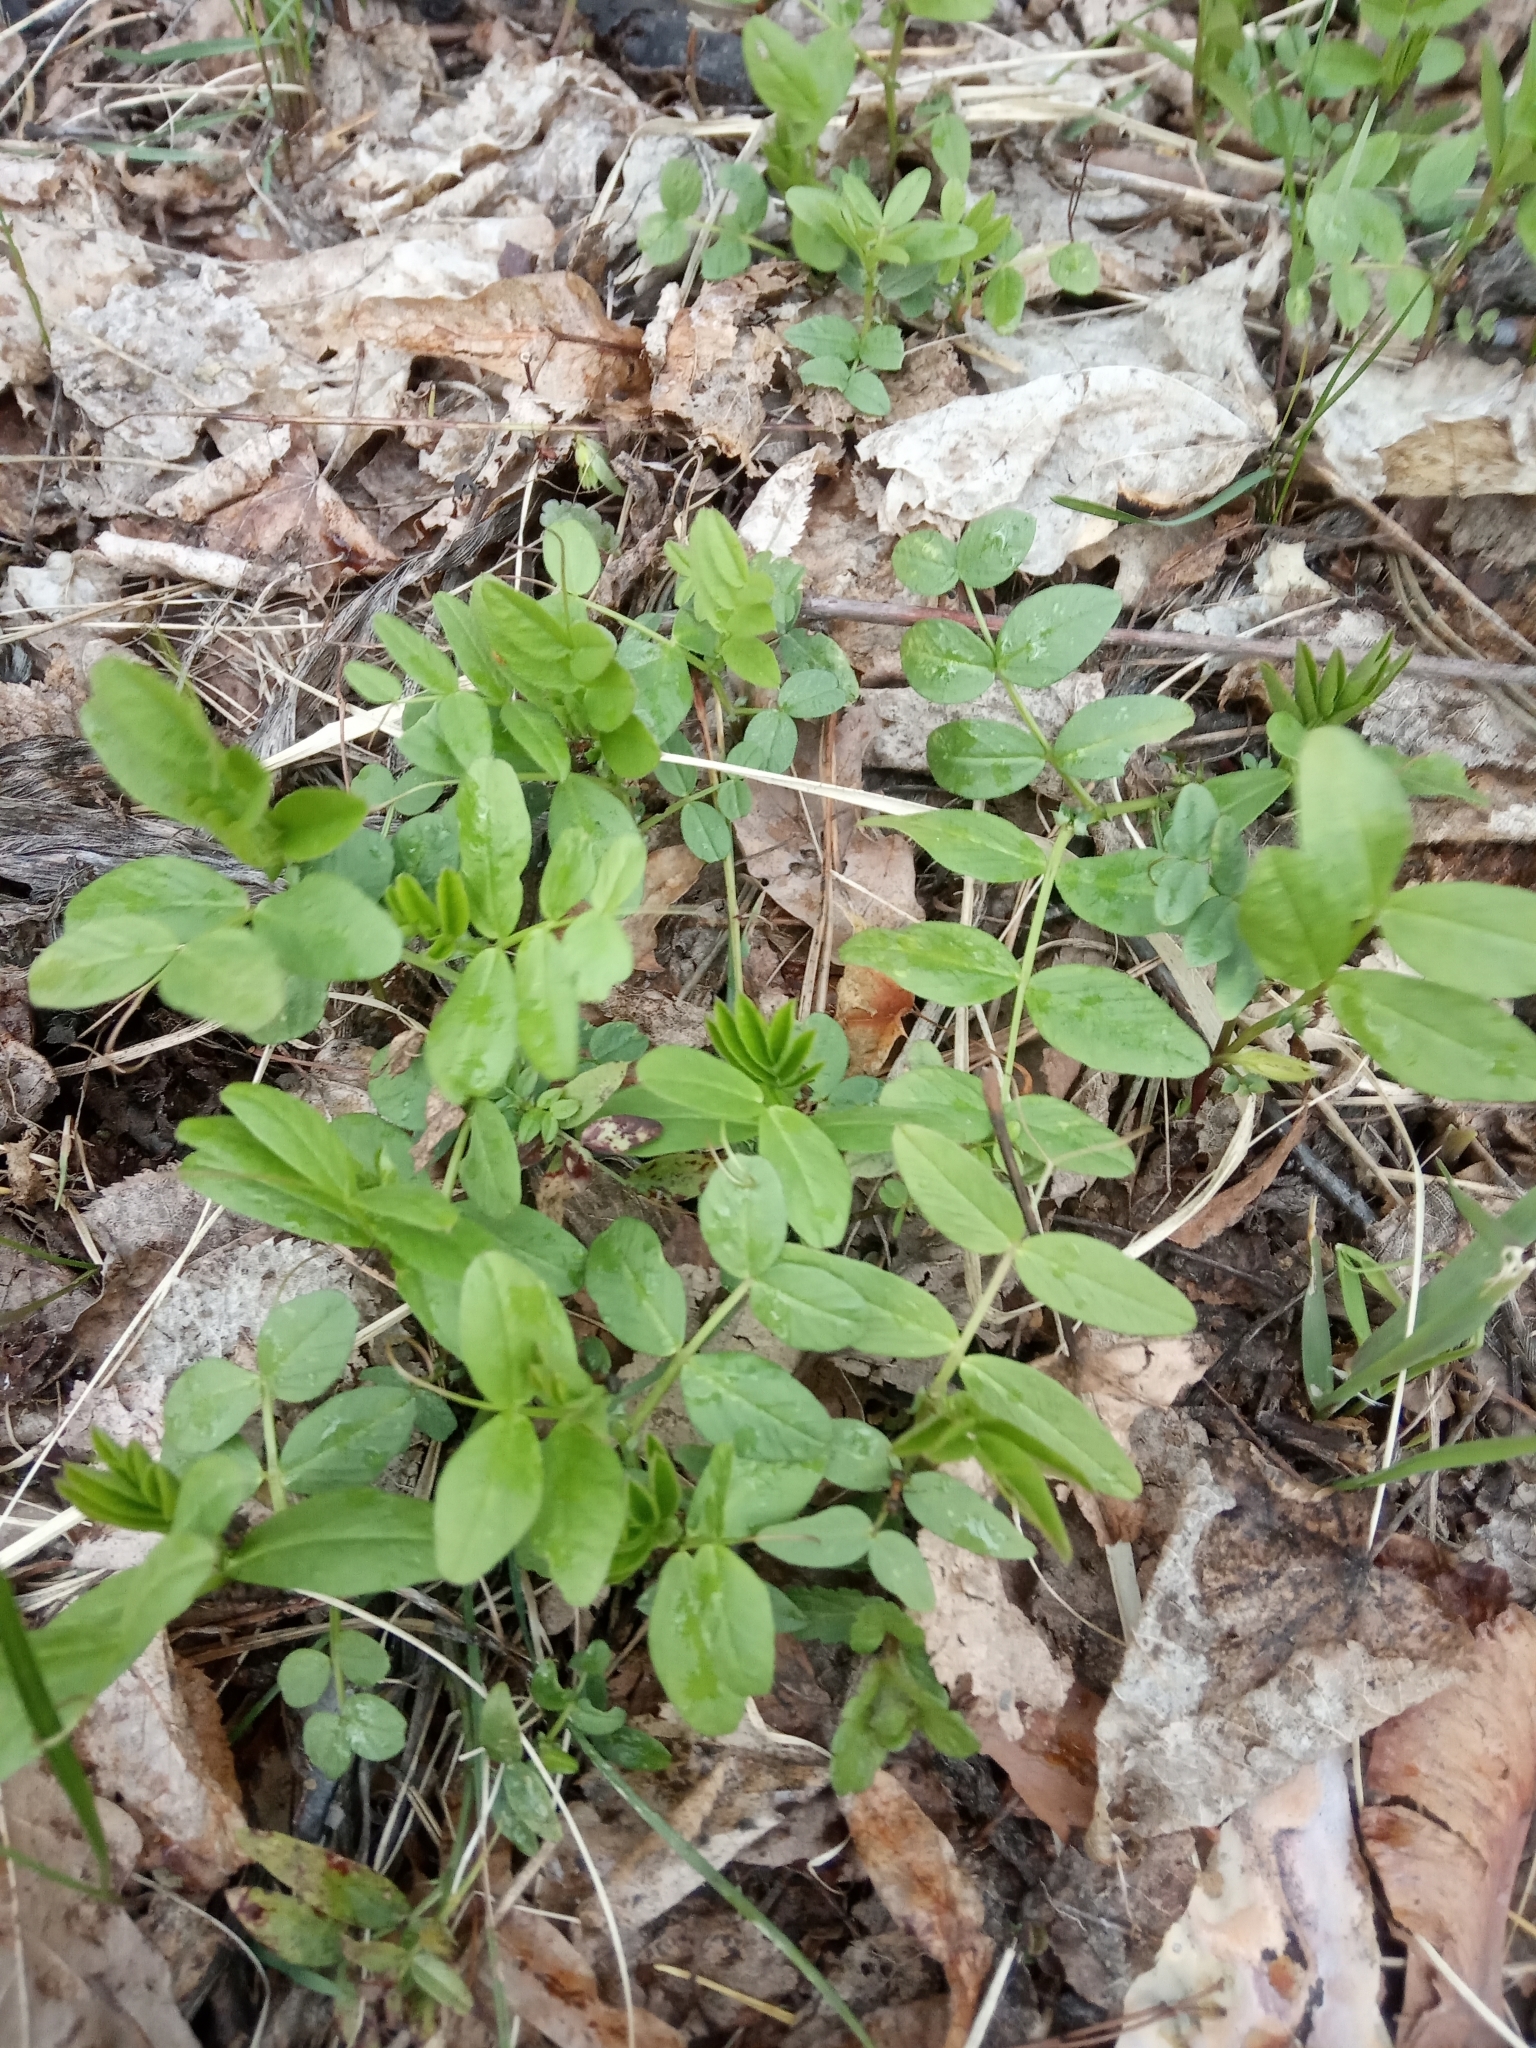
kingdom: Plantae
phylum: Tracheophyta
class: Magnoliopsida
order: Fabales
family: Fabaceae
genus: Vicia
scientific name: Vicia sepium
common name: Bush vetch
